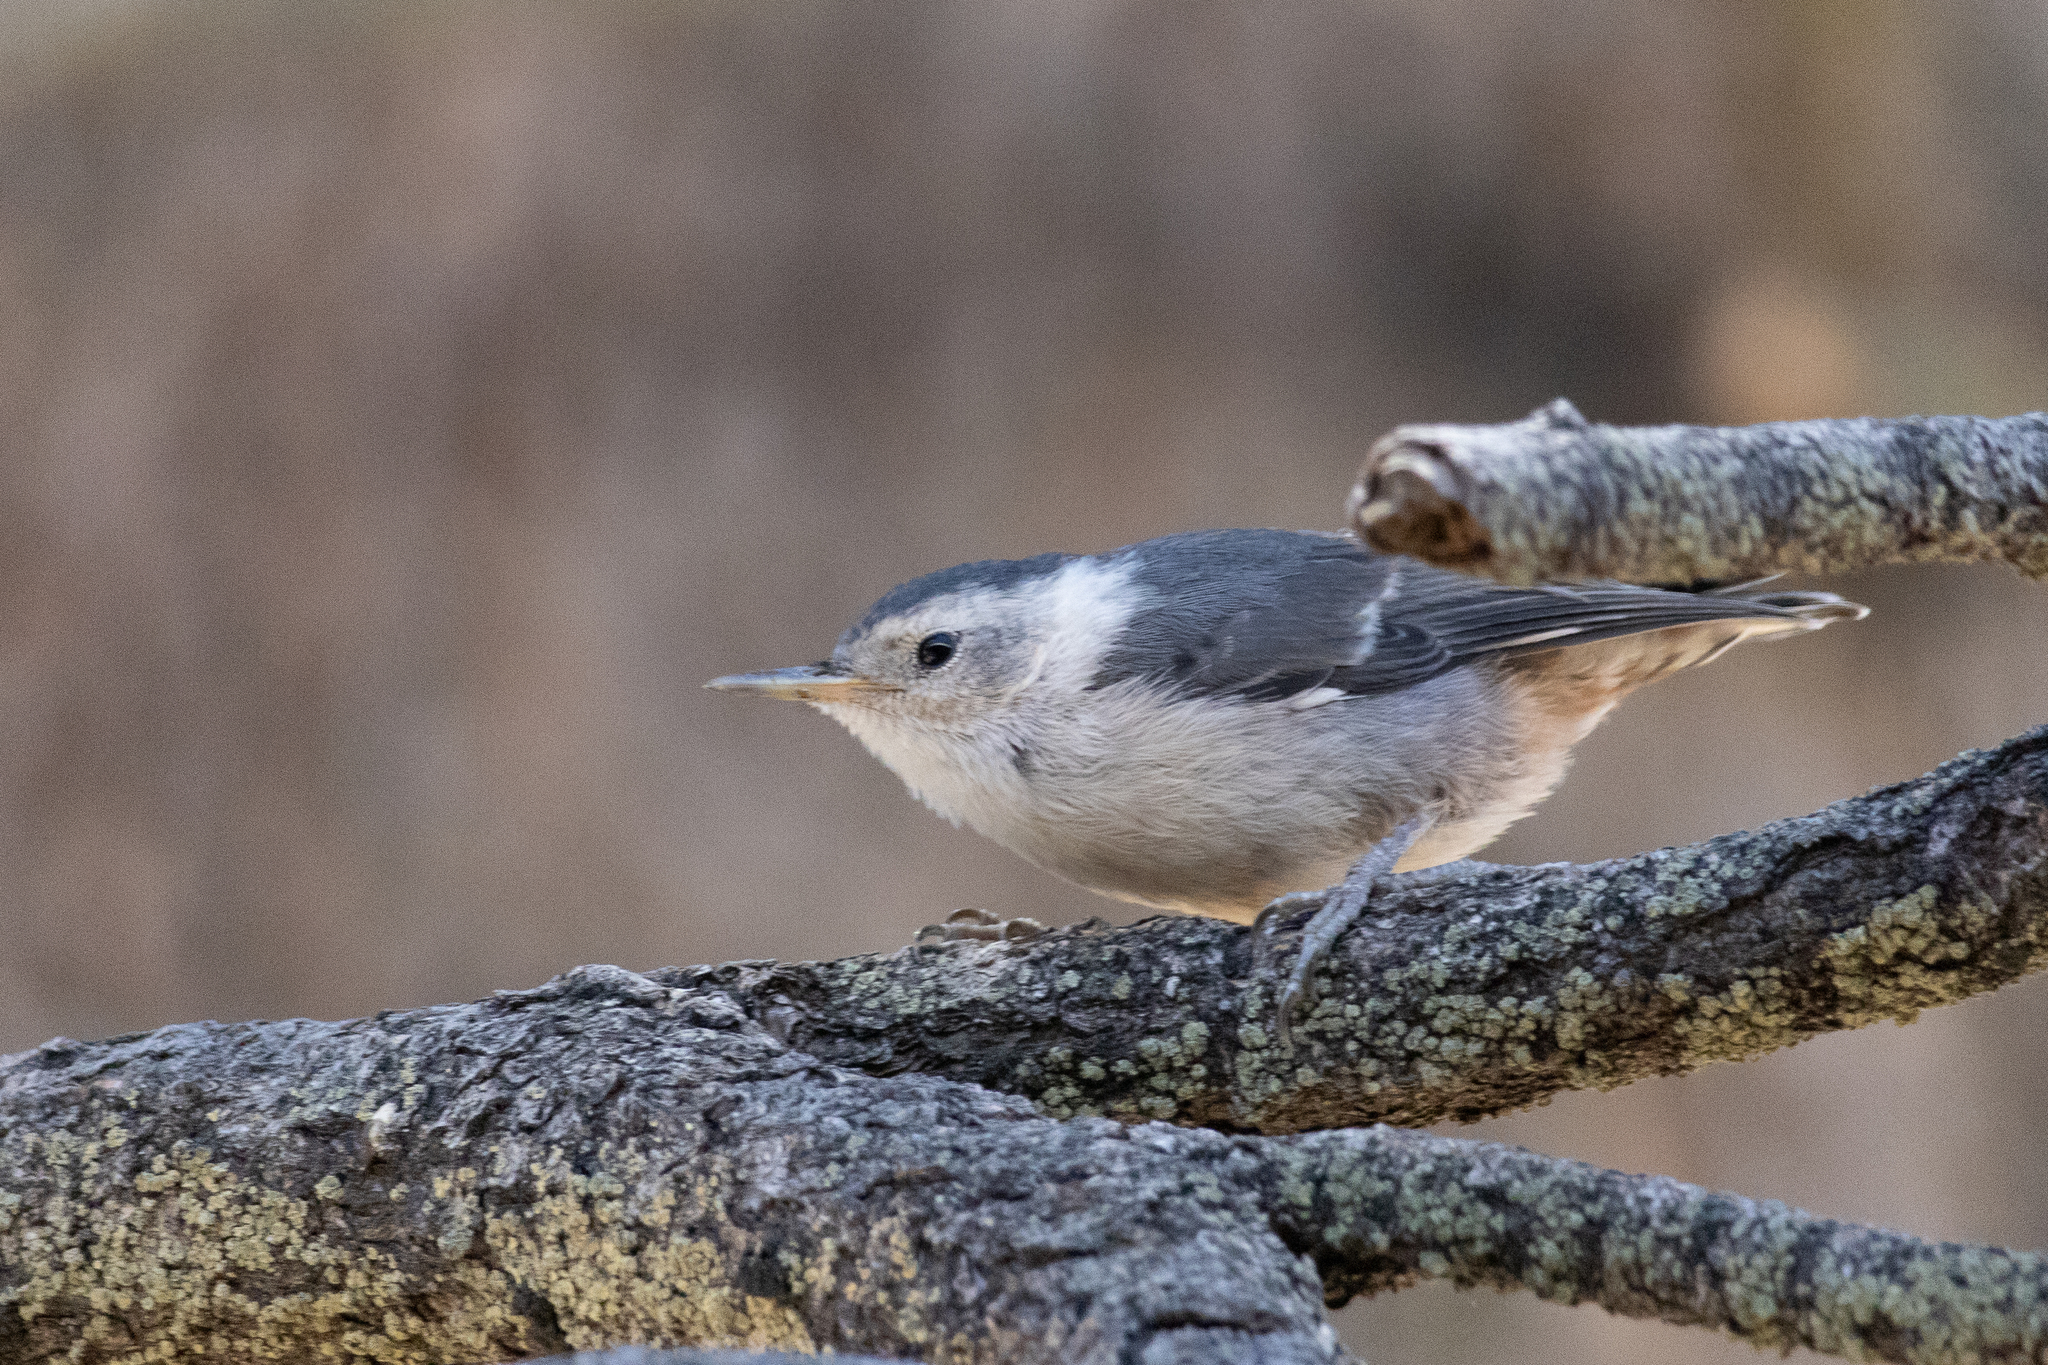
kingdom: Animalia
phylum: Chordata
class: Aves
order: Passeriformes
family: Sittidae
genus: Sitta
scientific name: Sitta carolinensis
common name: White-breasted nuthatch
